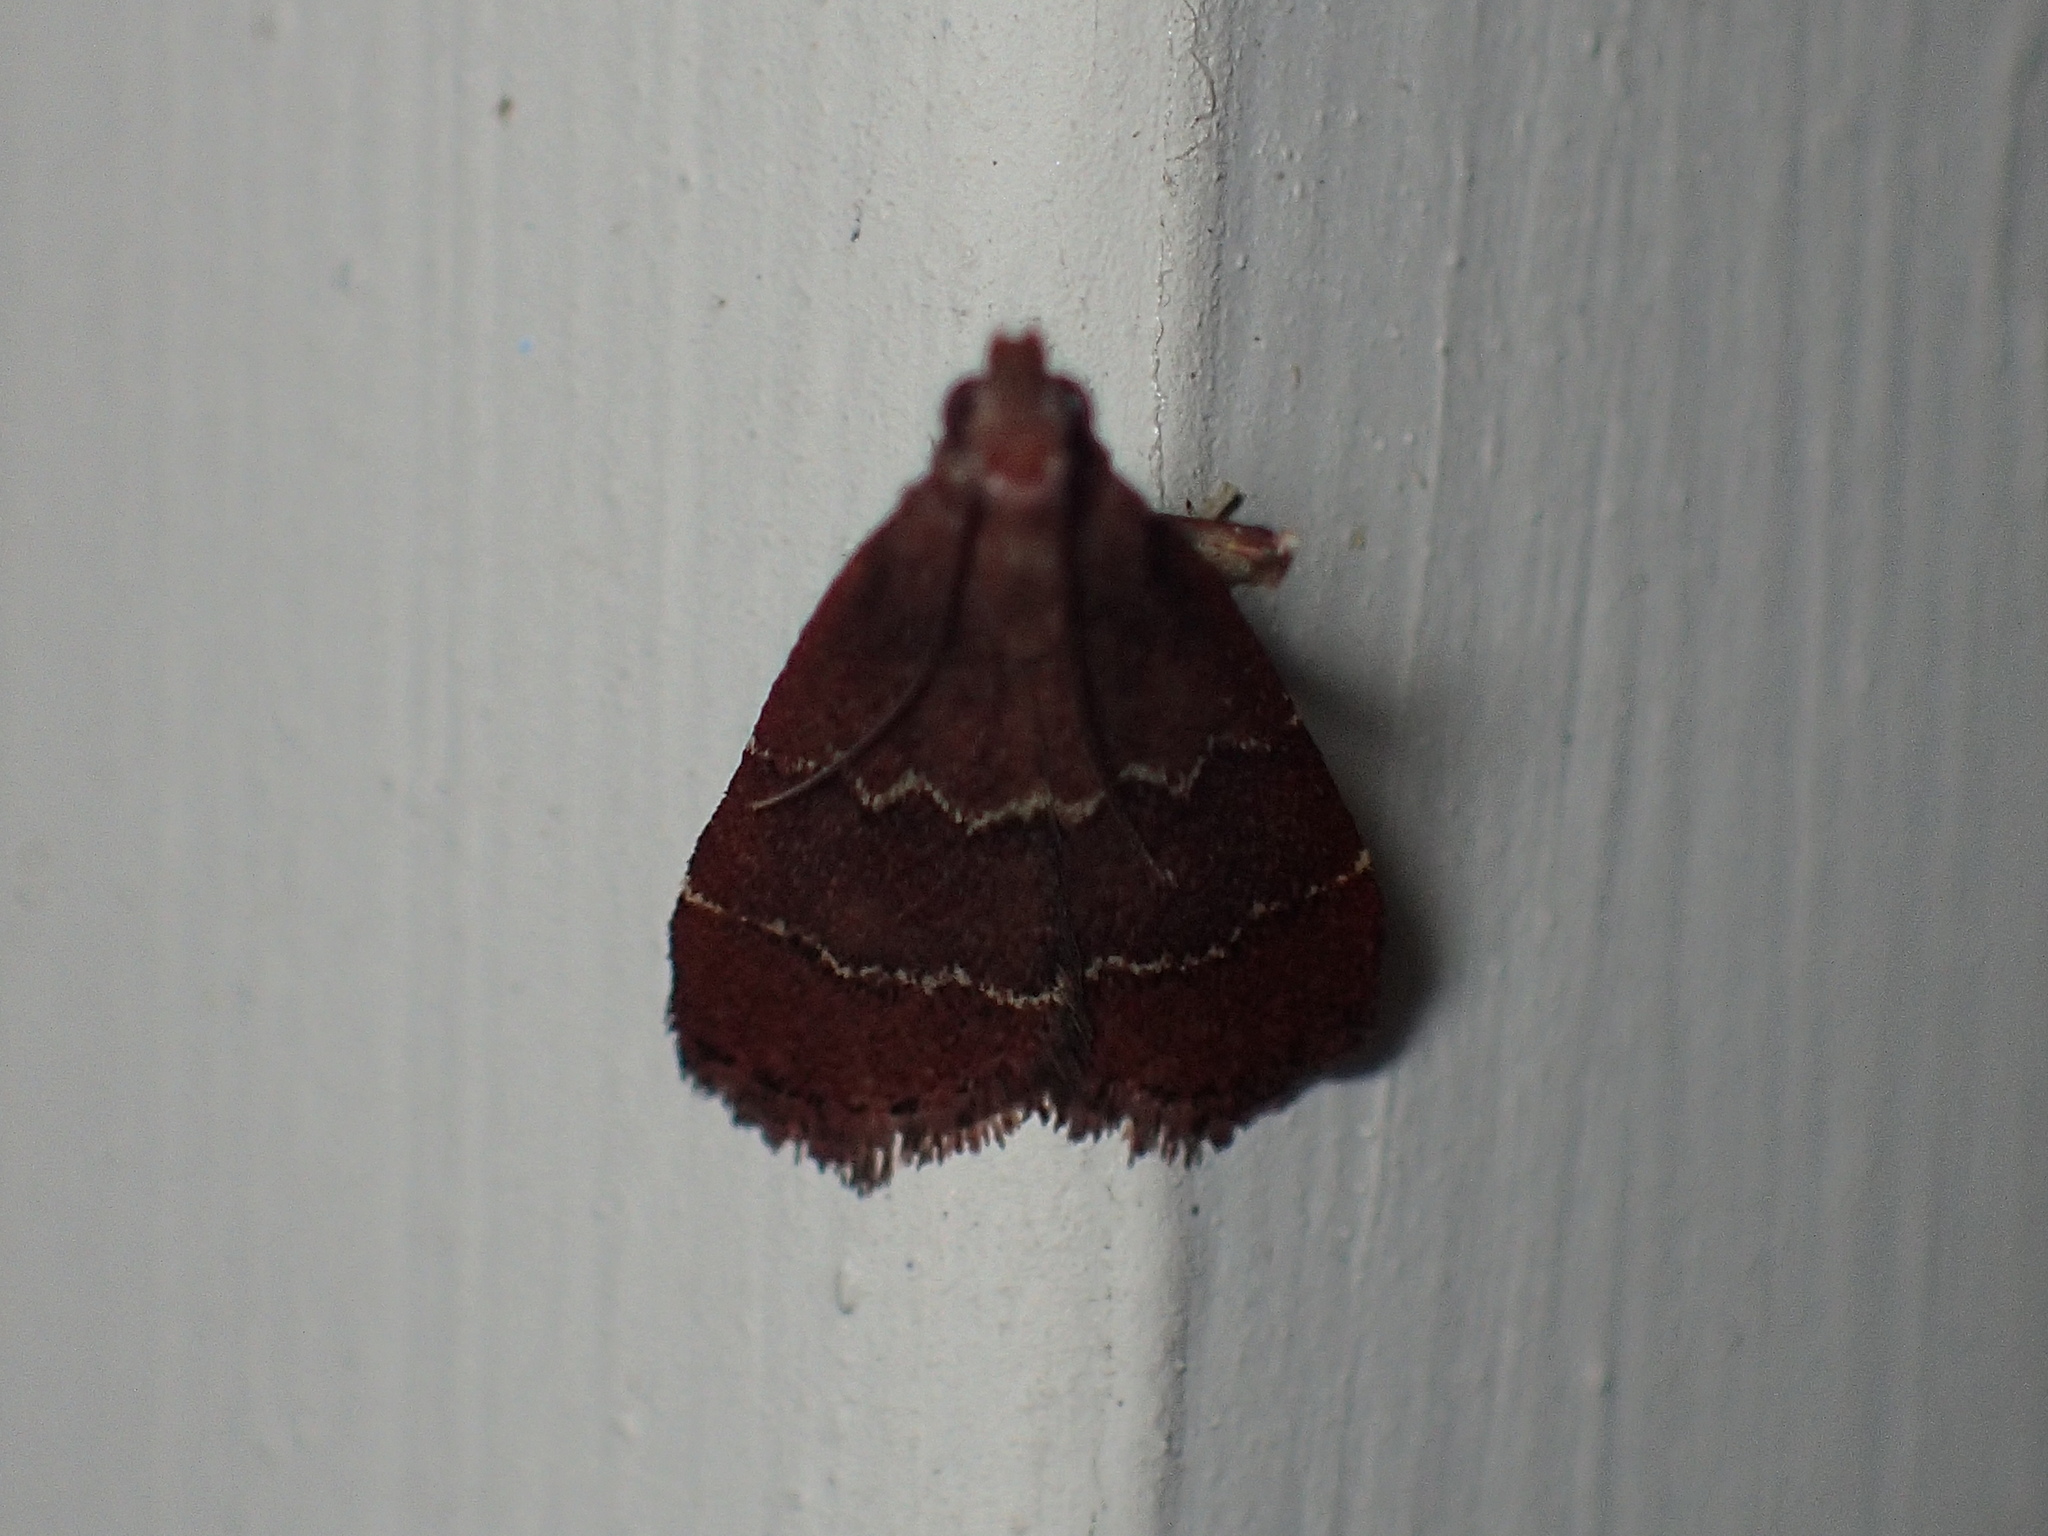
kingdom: Animalia
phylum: Arthropoda
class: Insecta
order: Lepidoptera
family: Pyralidae
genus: Arta
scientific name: Arta
